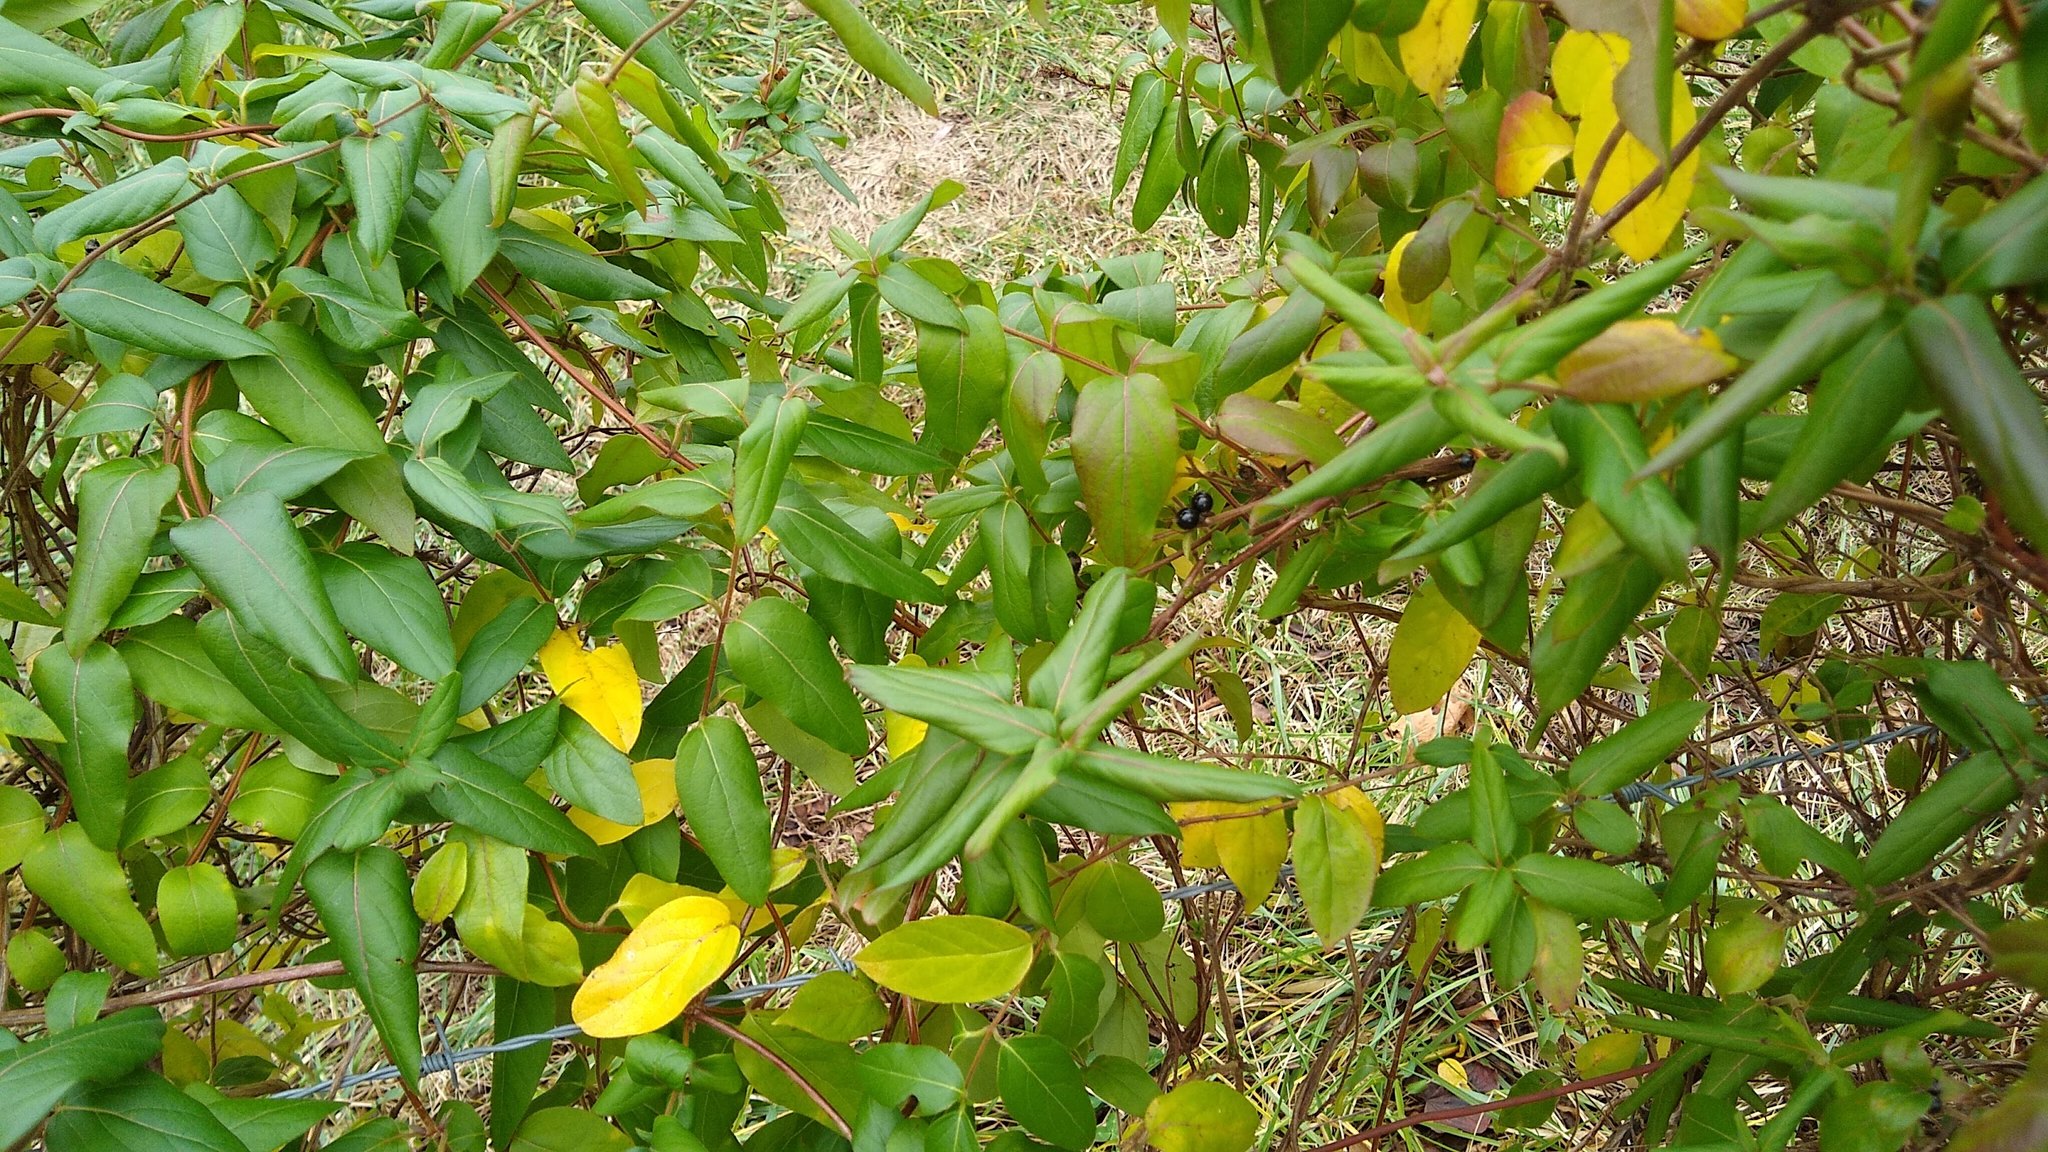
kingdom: Plantae
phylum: Tracheophyta
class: Magnoliopsida
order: Dipsacales
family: Caprifoliaceae
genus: Lonicera
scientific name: Lonicera japonica
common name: Japanese honeysuckle
